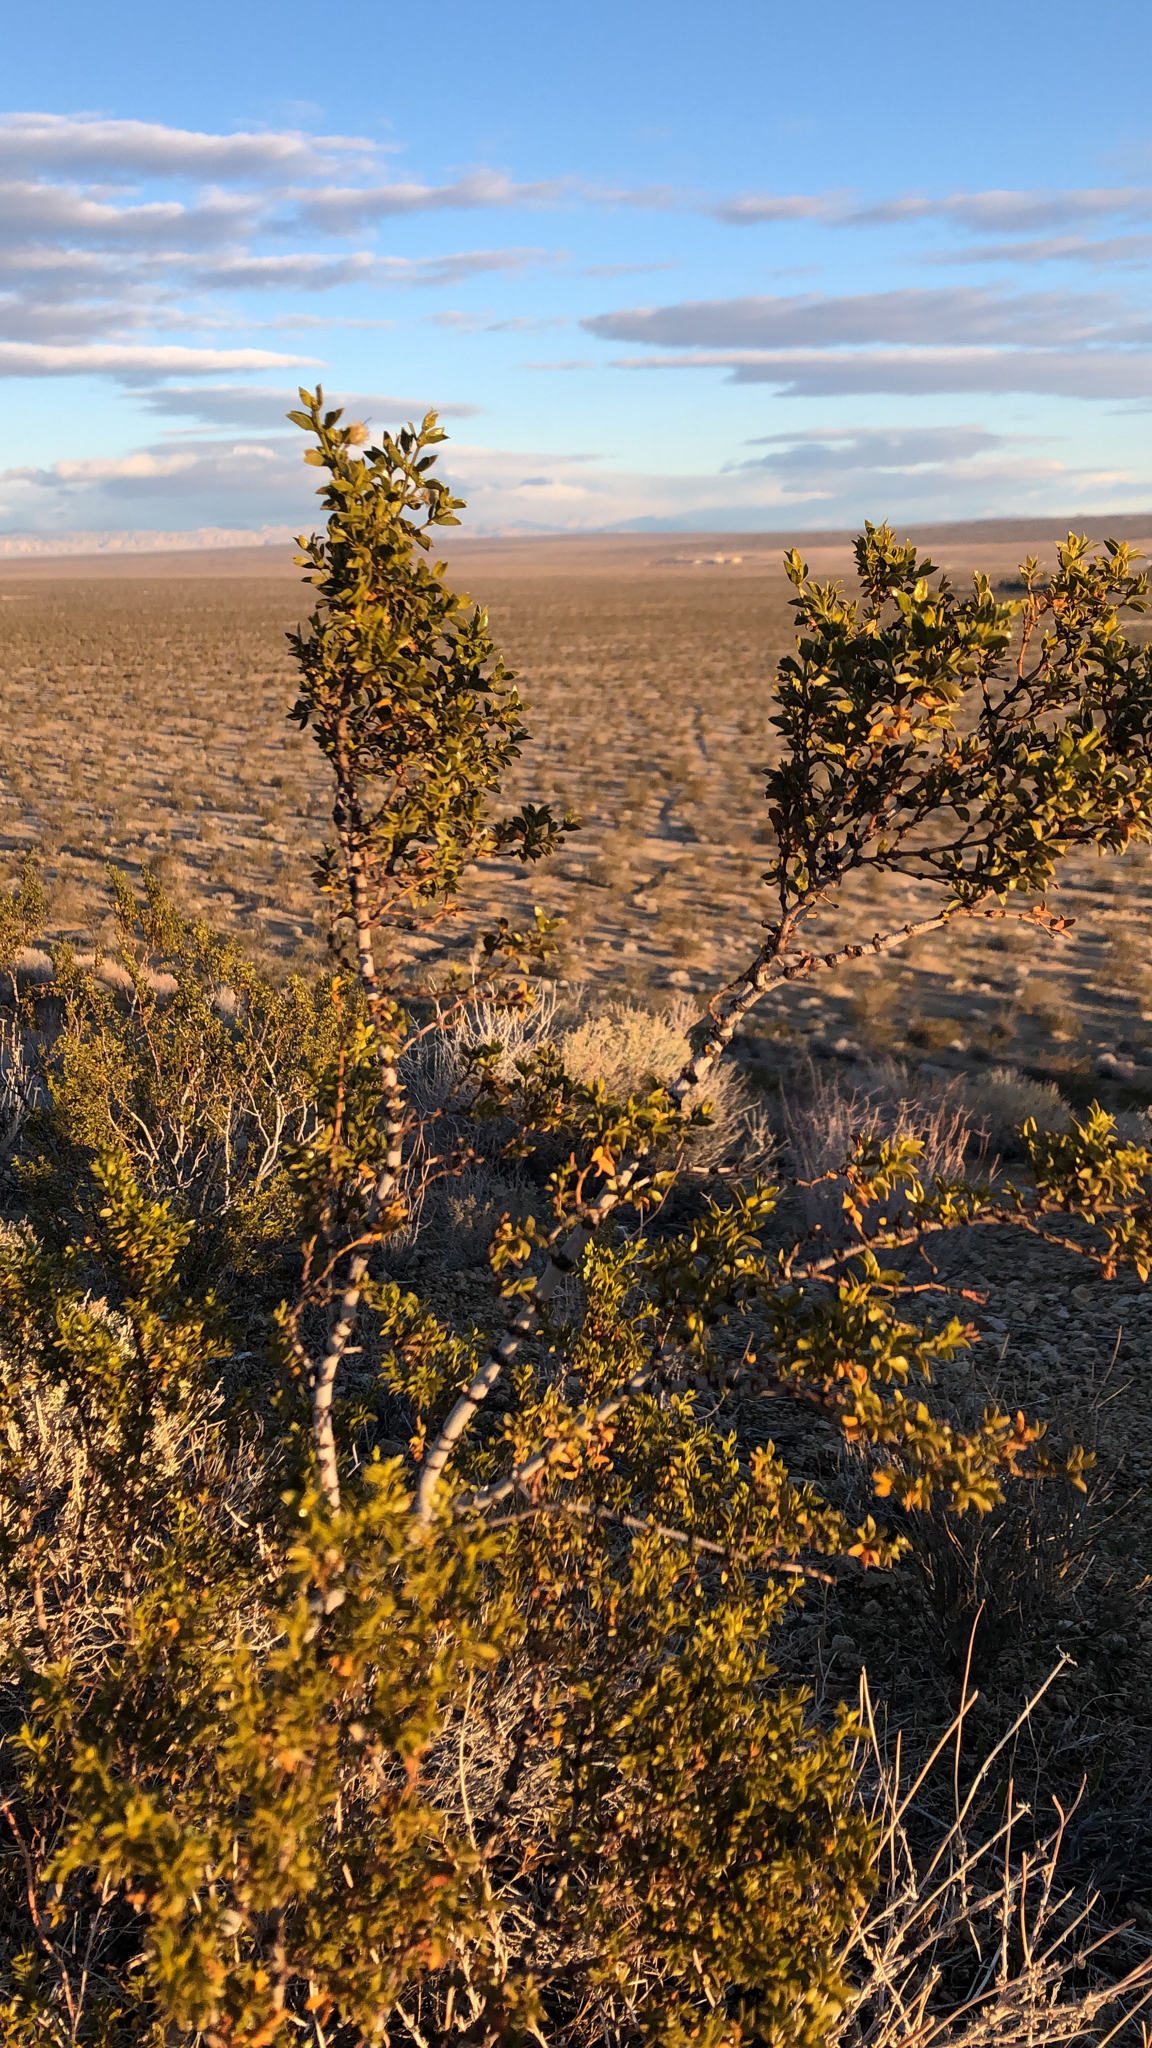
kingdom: Plantae
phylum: Tracheophyta
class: Magnoliopsida
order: Zygophyllales
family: Zygophyllaceae
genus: Larrea
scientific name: Larrea tridentata
